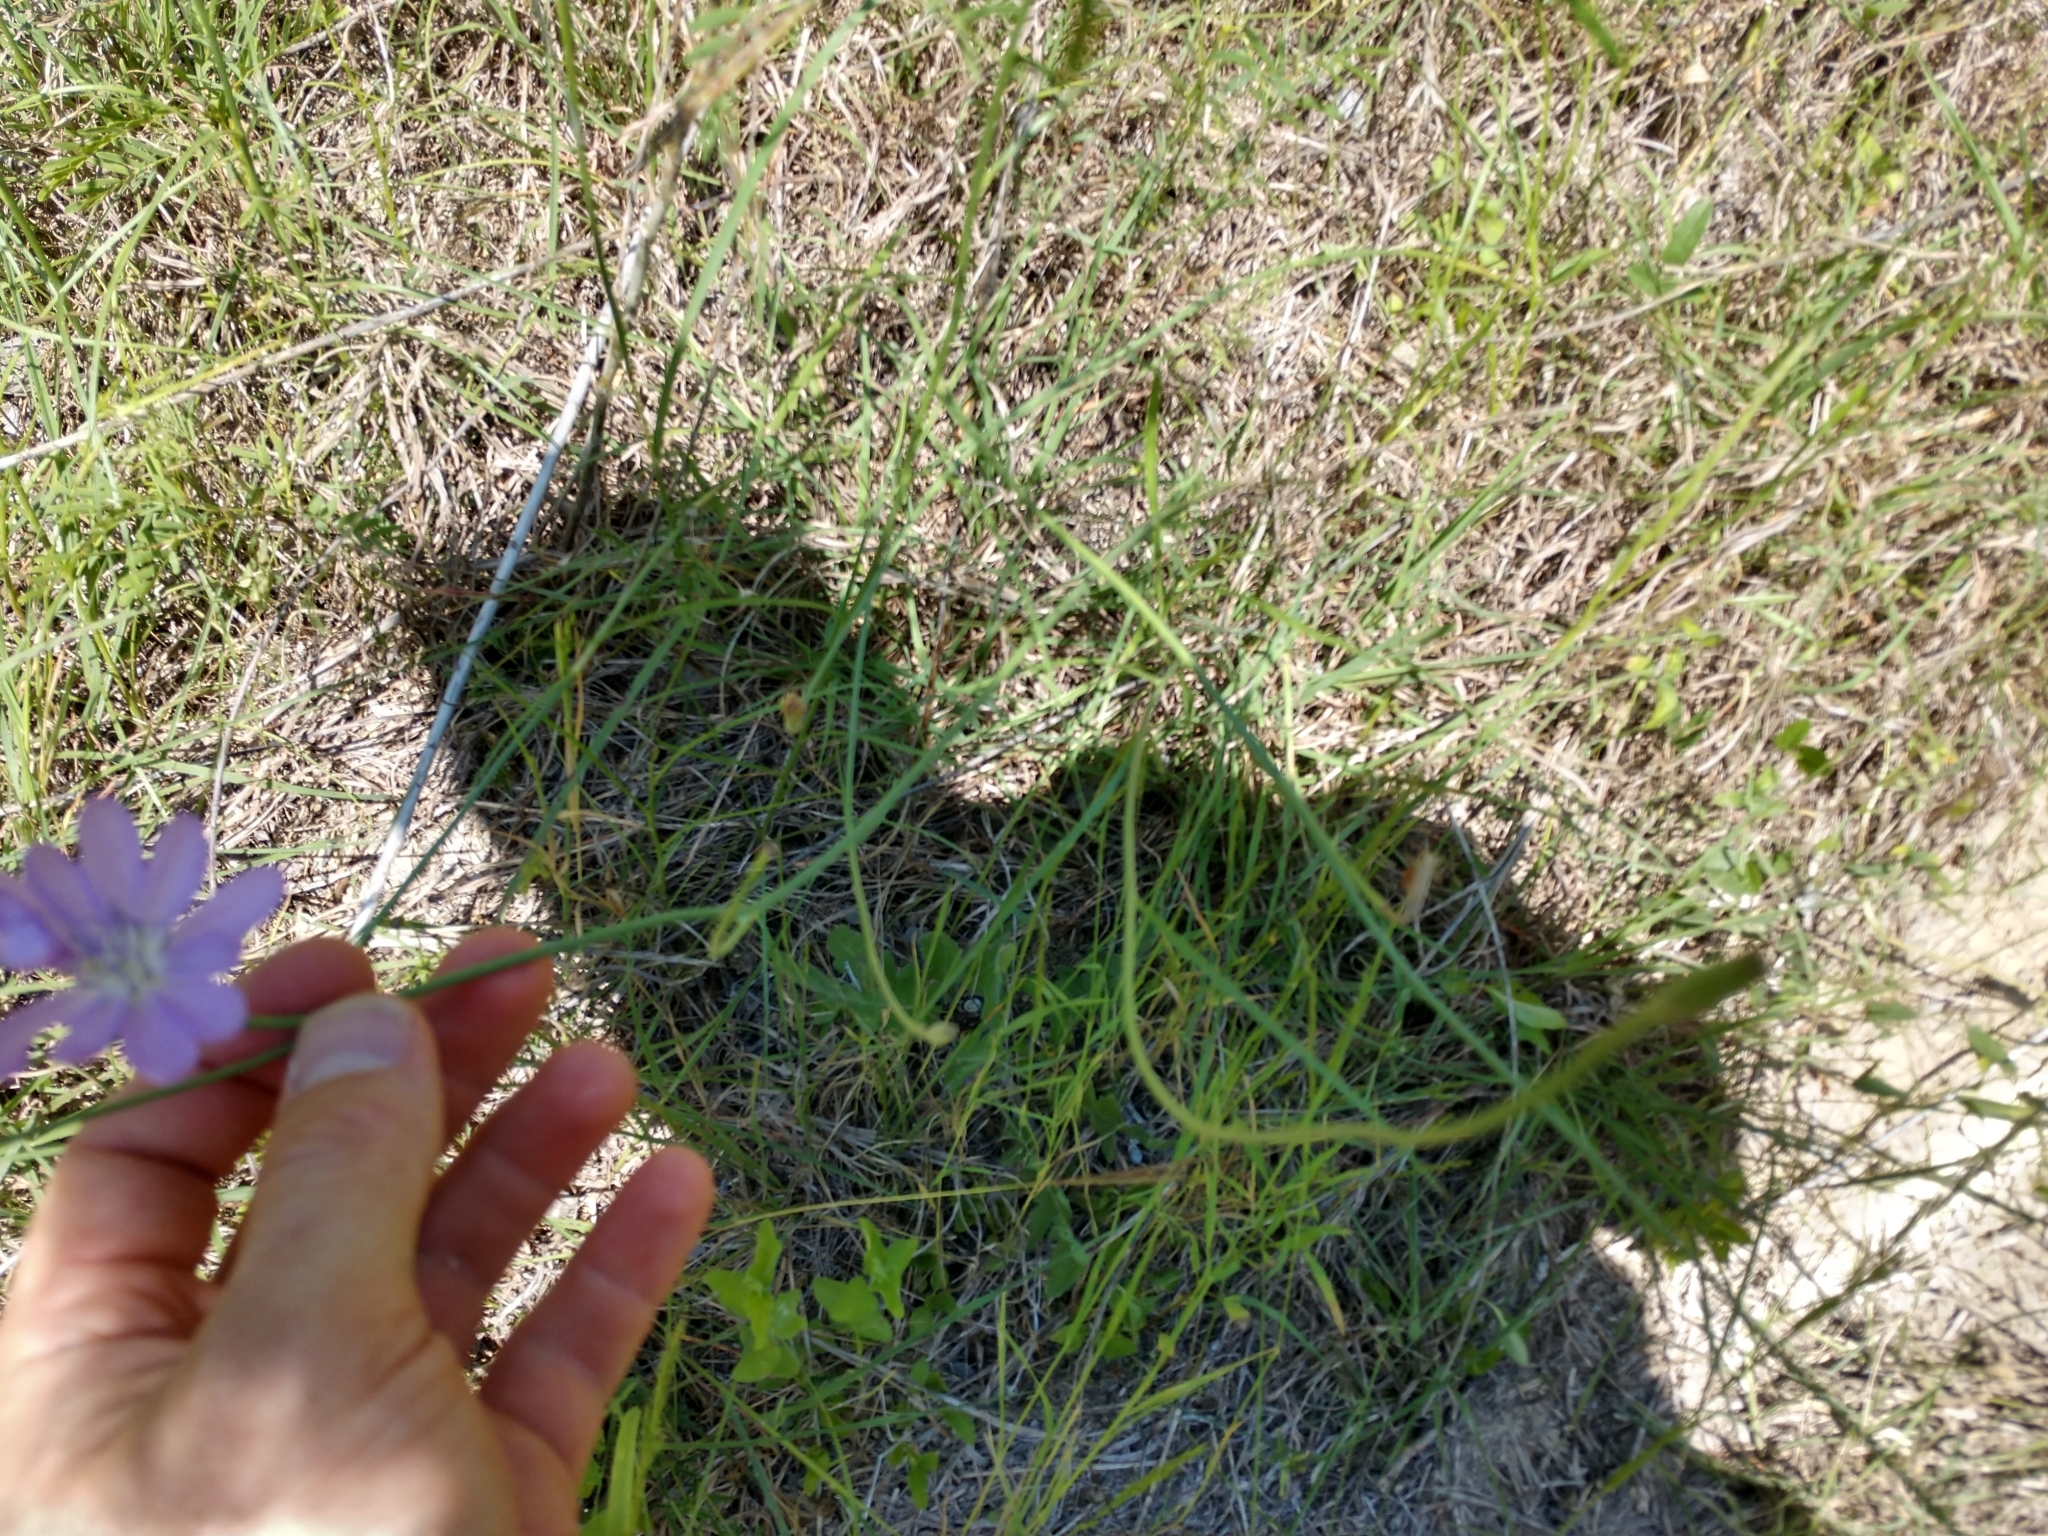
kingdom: Plantae
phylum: Tracheophyta
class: Magnoliopsida
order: Asterales
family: Asteraceae
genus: Lygodesmia
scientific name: Lygodesmia texana
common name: Texas skeleton-plant
